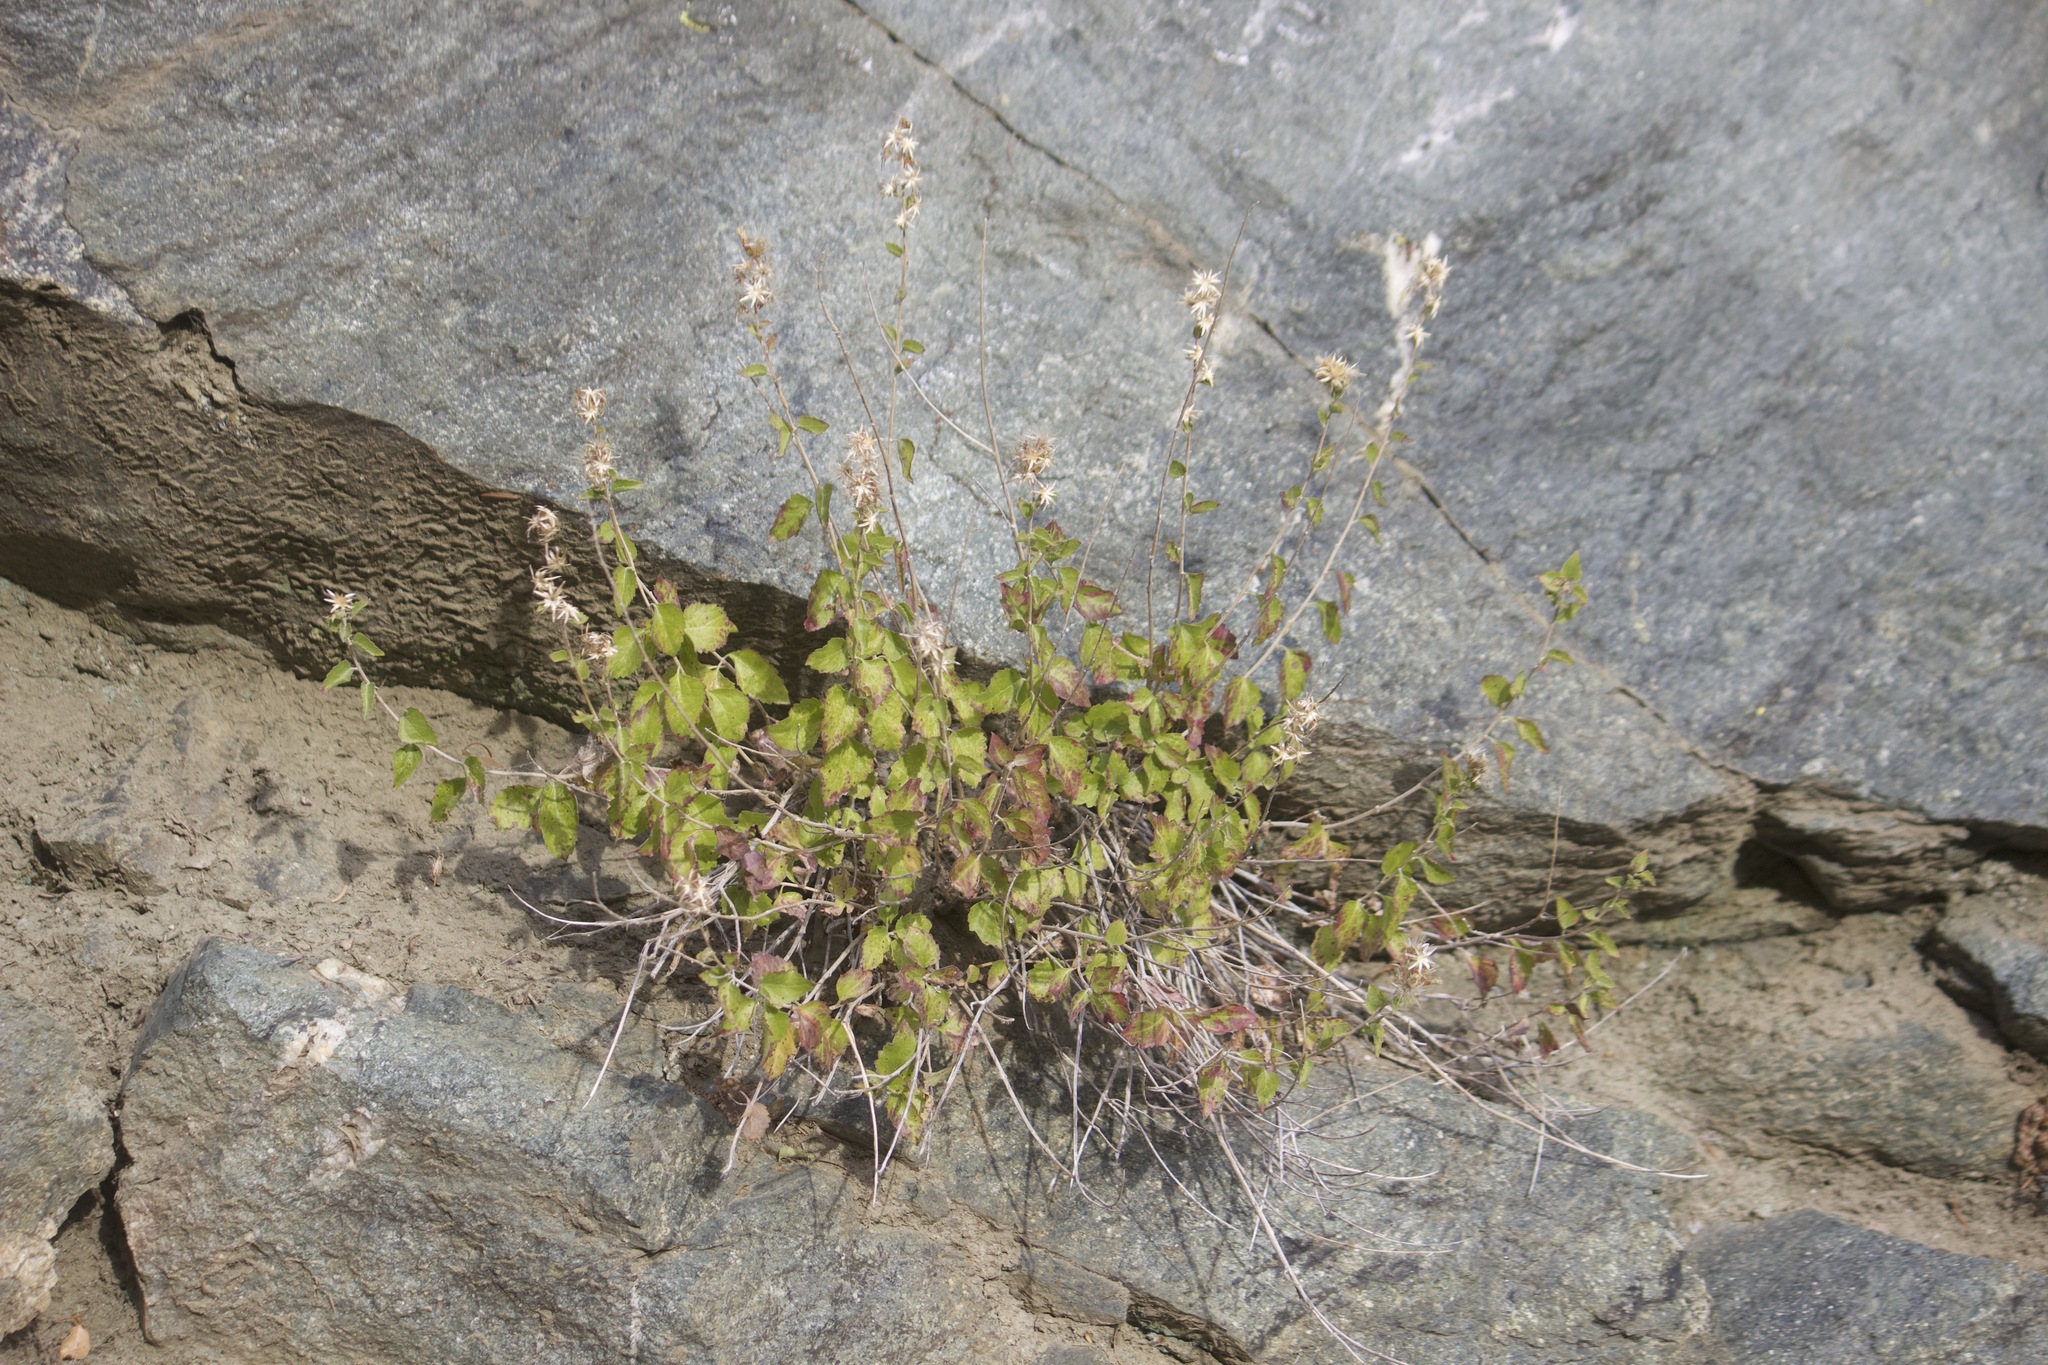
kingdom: Plantae
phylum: Tracheophyta
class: Magnoliopsida
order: Asterales
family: Asteraceae
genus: Brickellia
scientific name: Brickellia californica
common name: California brickellbush
